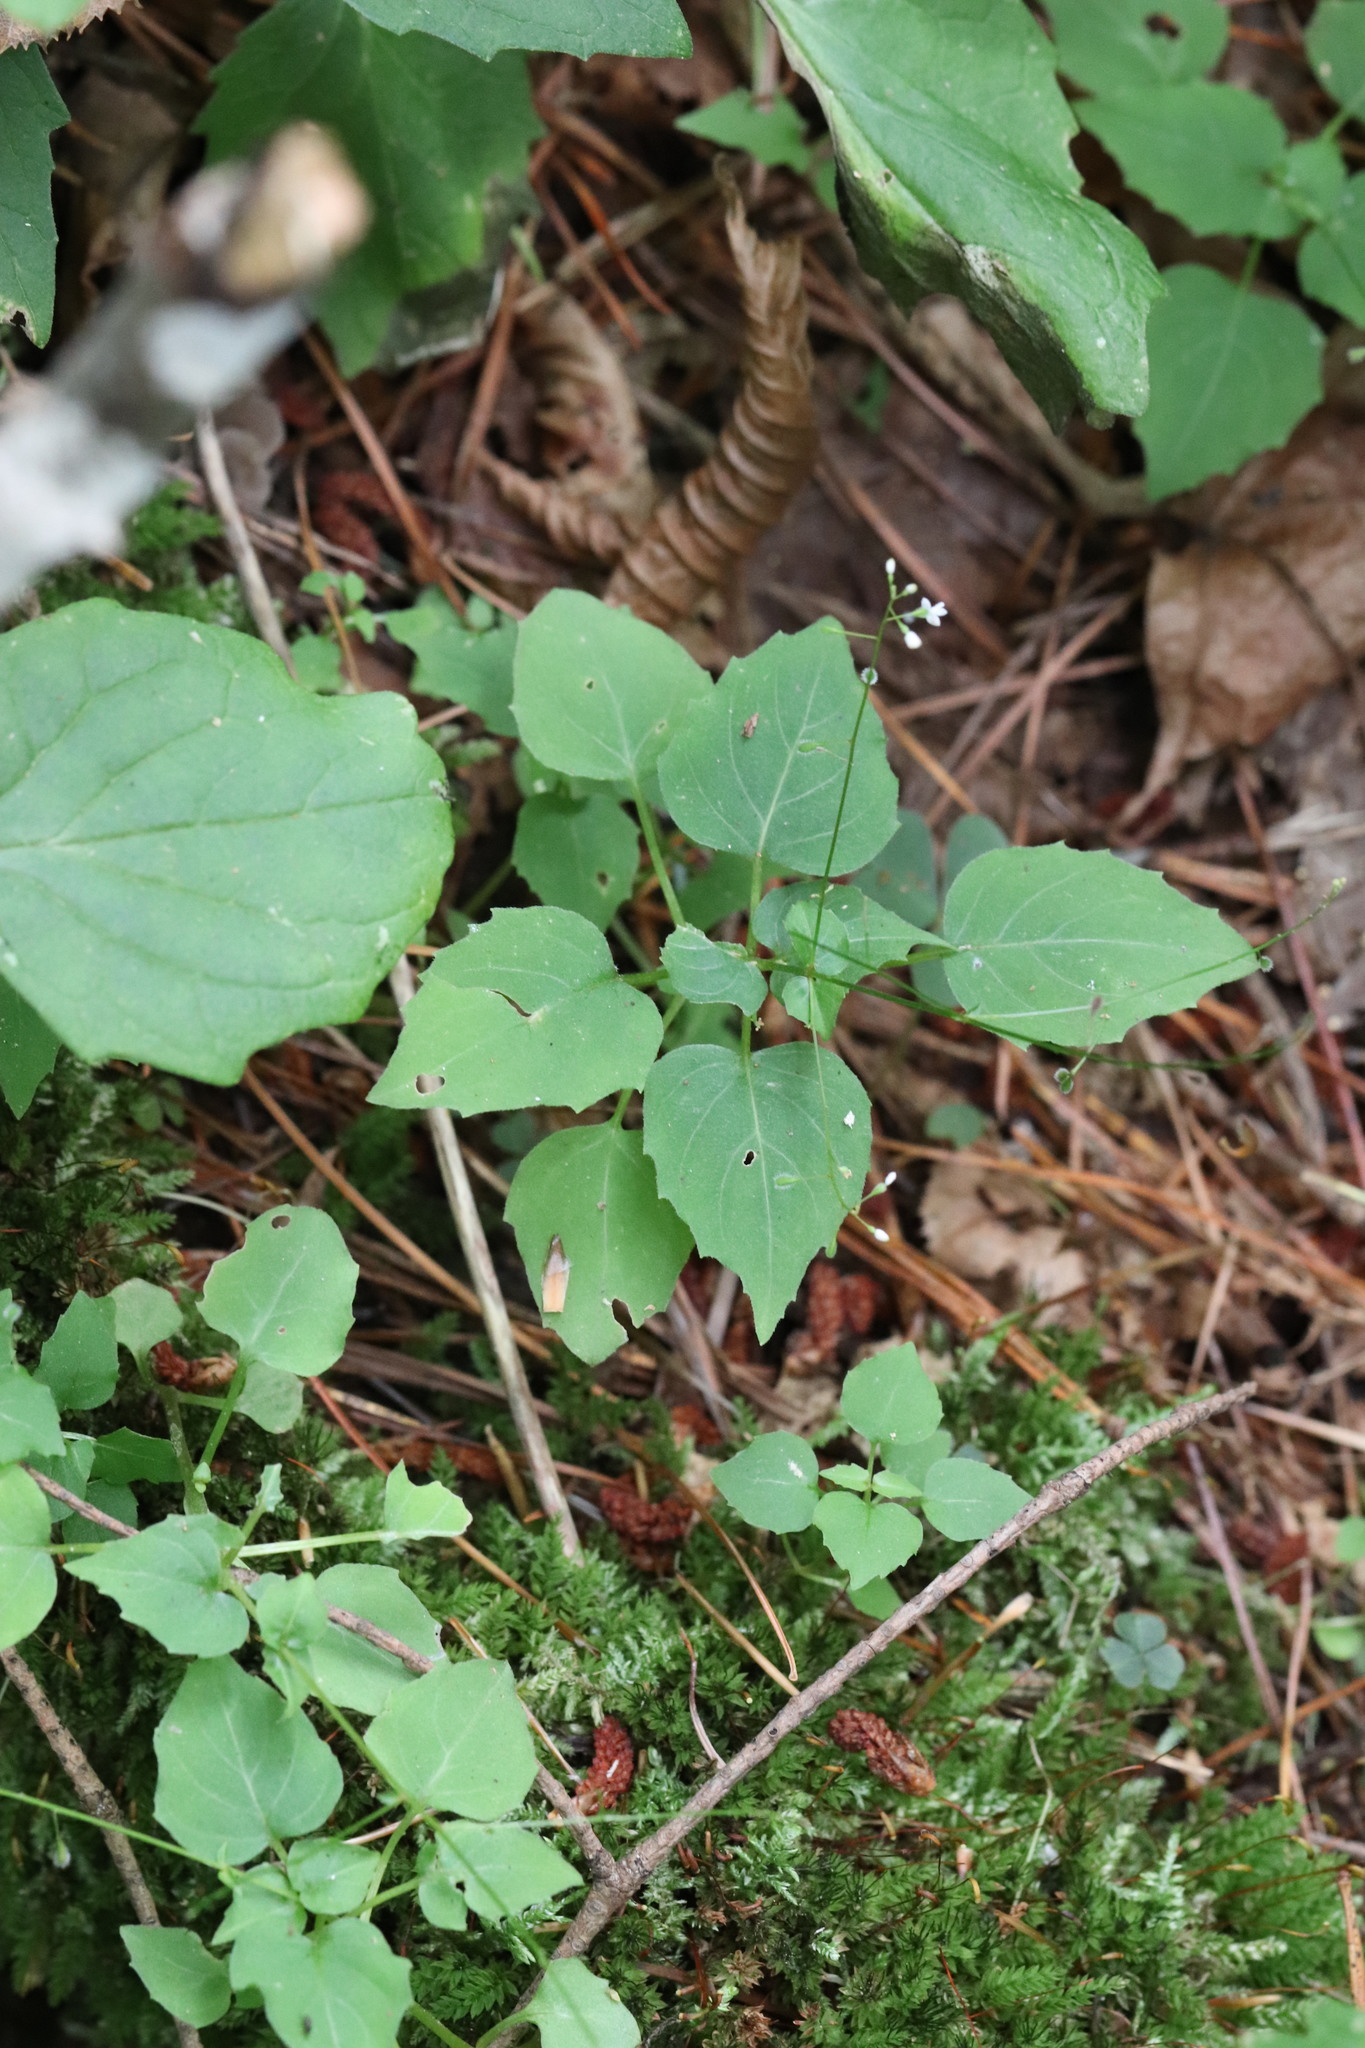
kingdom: Plantae
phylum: Tracheophyta
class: Magnoliopsida
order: Myrtales
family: Onagraceae
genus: Circaea
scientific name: Circaea alpina
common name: Alpine enchanter's-nightshade
